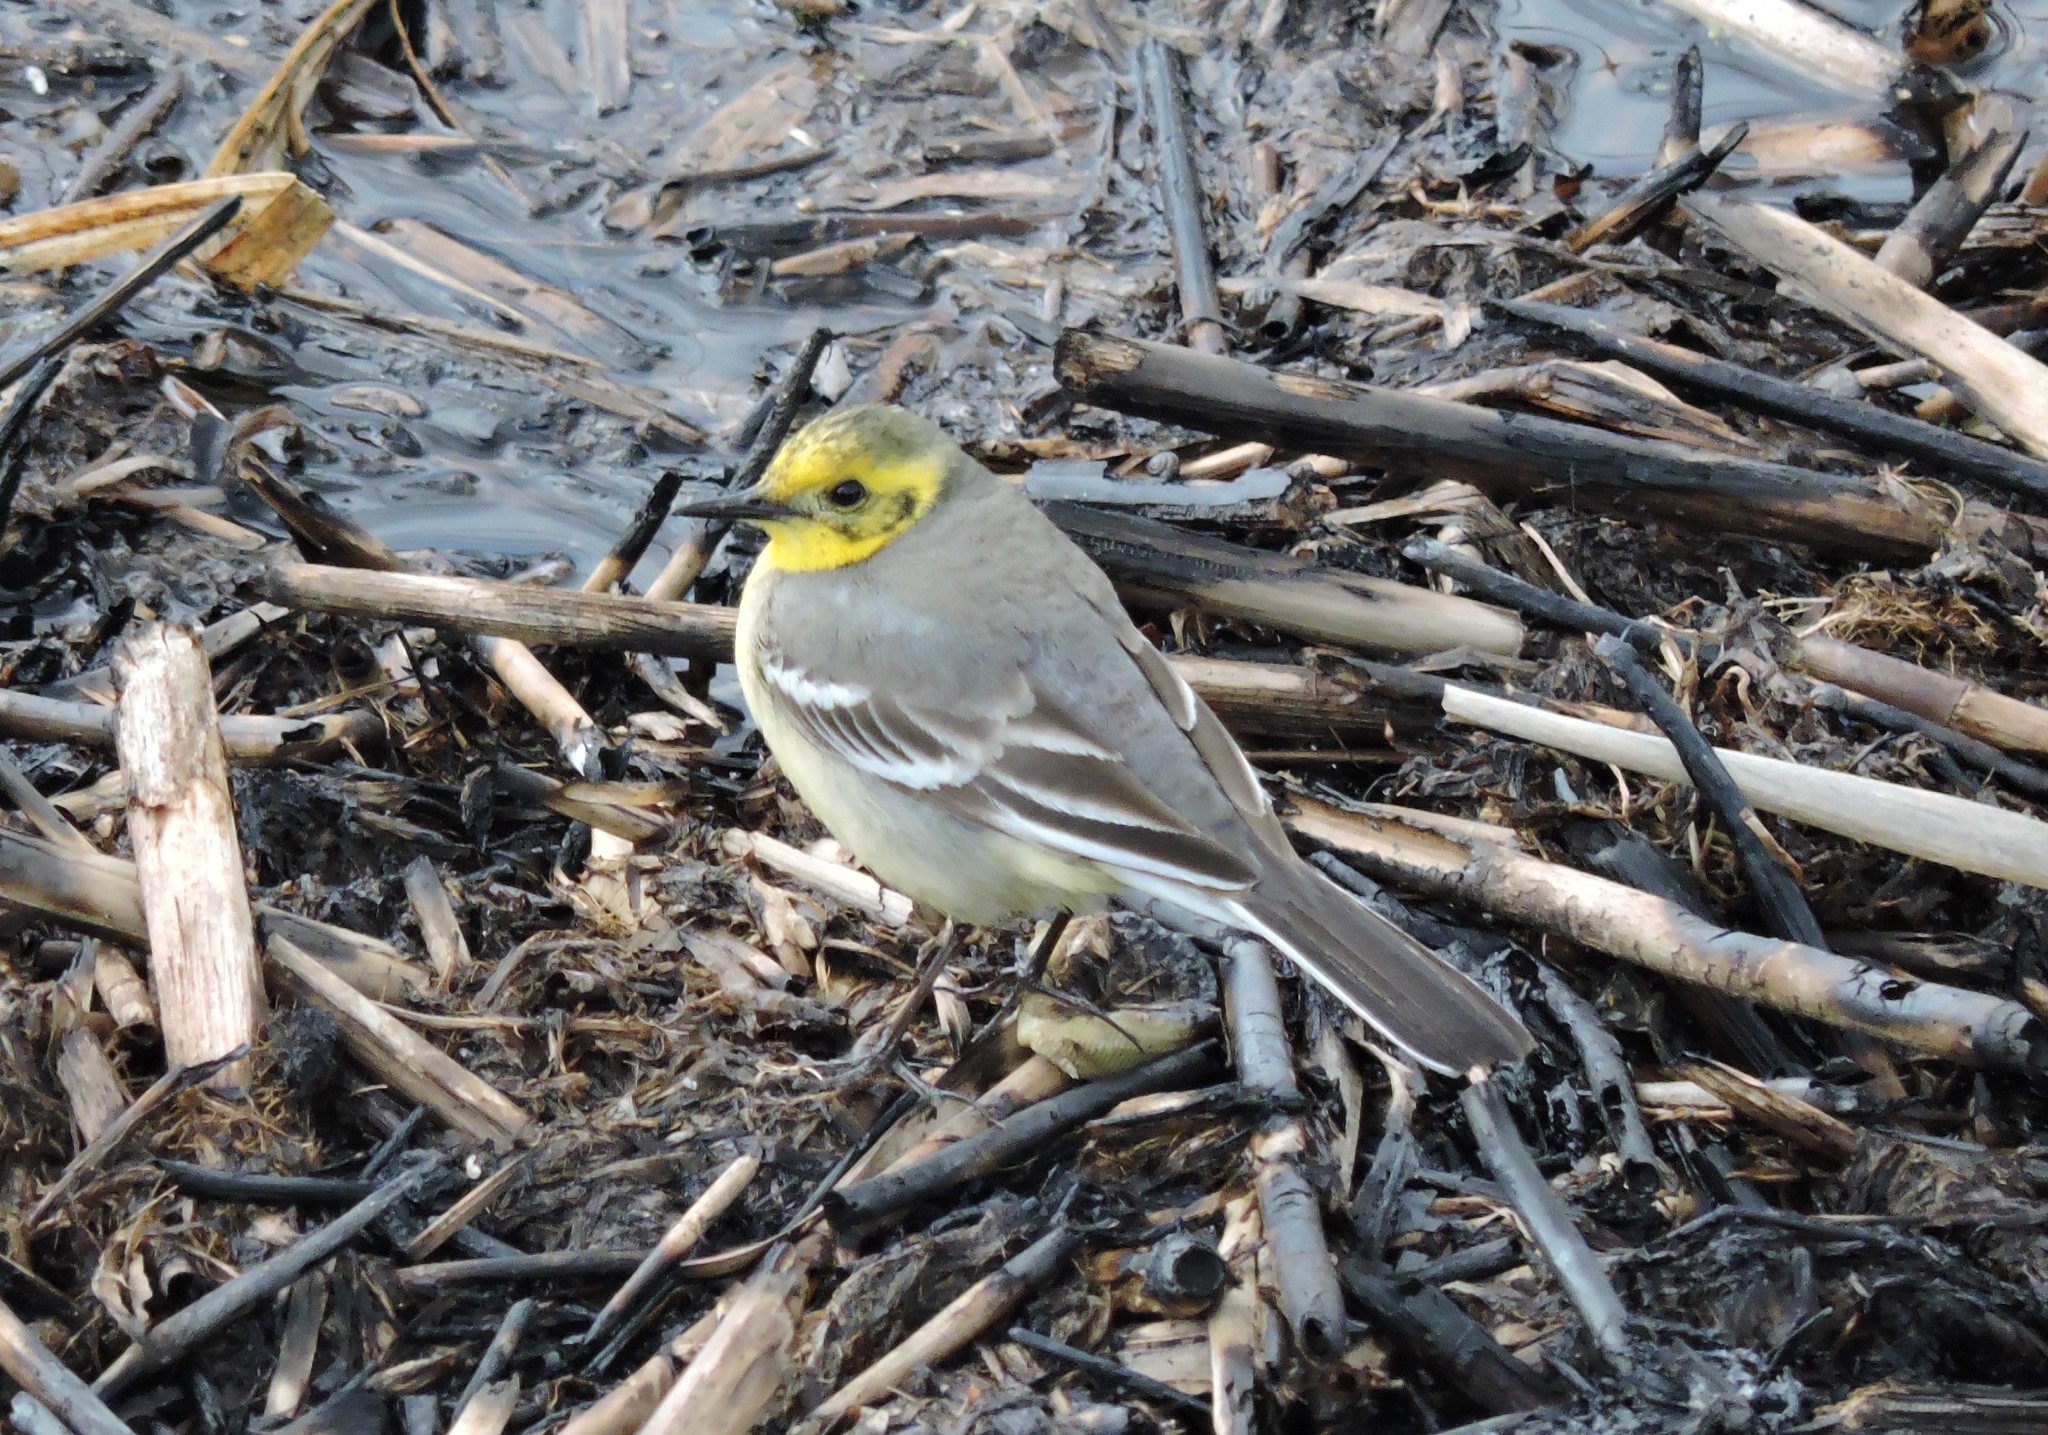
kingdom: Animalia
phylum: Chordata
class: Aves
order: Passeriformes
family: Motacillidae
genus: Motacilla
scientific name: Motacilla citreola
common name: Citrine wagtail
